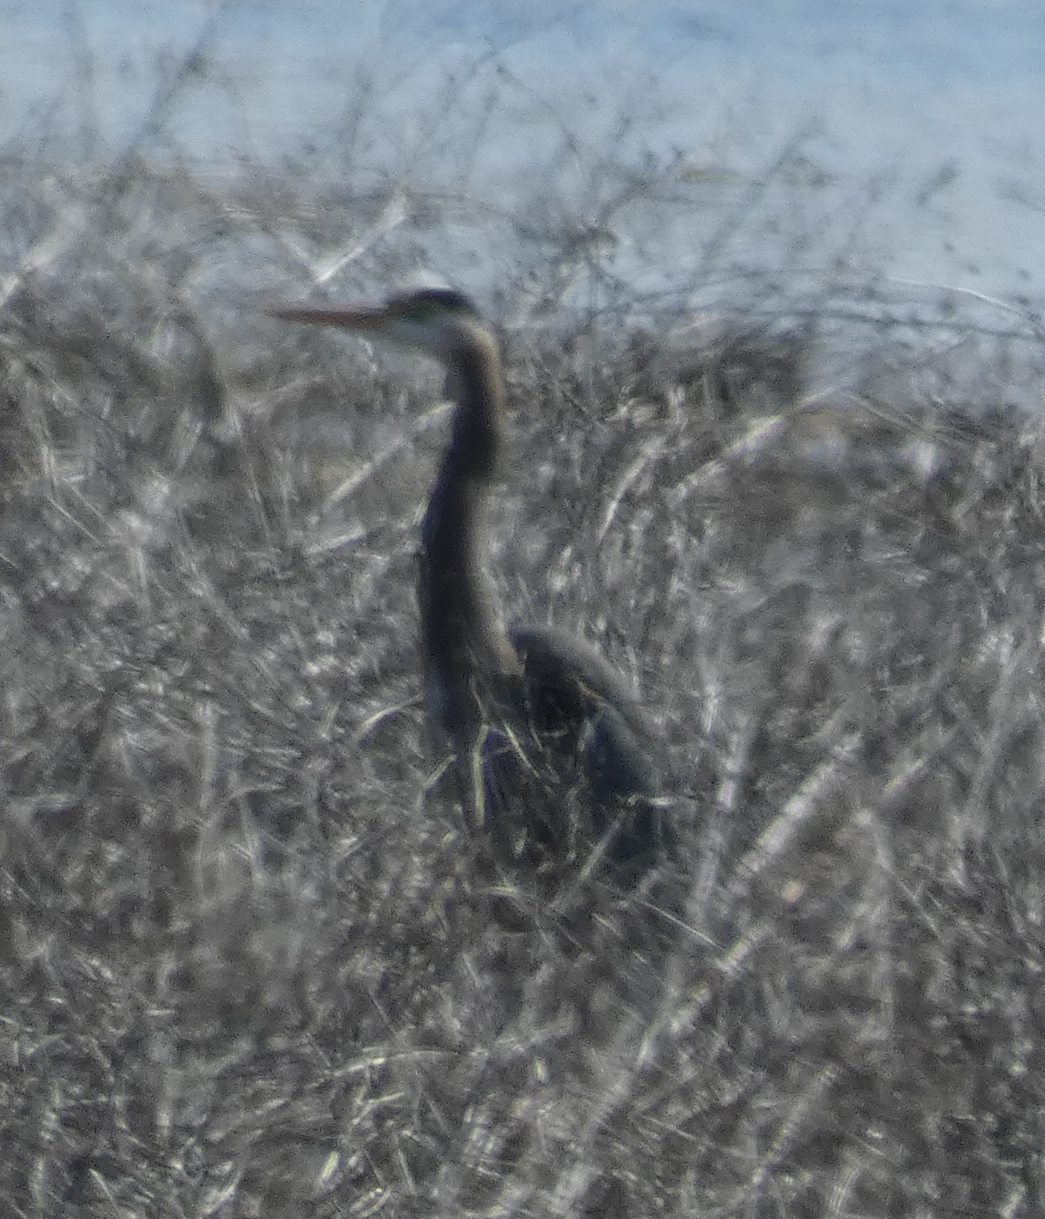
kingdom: Animalia
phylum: Chordata
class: Aves
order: Pelecaniformes
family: Ardeidae
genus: Ardea
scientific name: Ardea herodias
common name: Great blue heron
